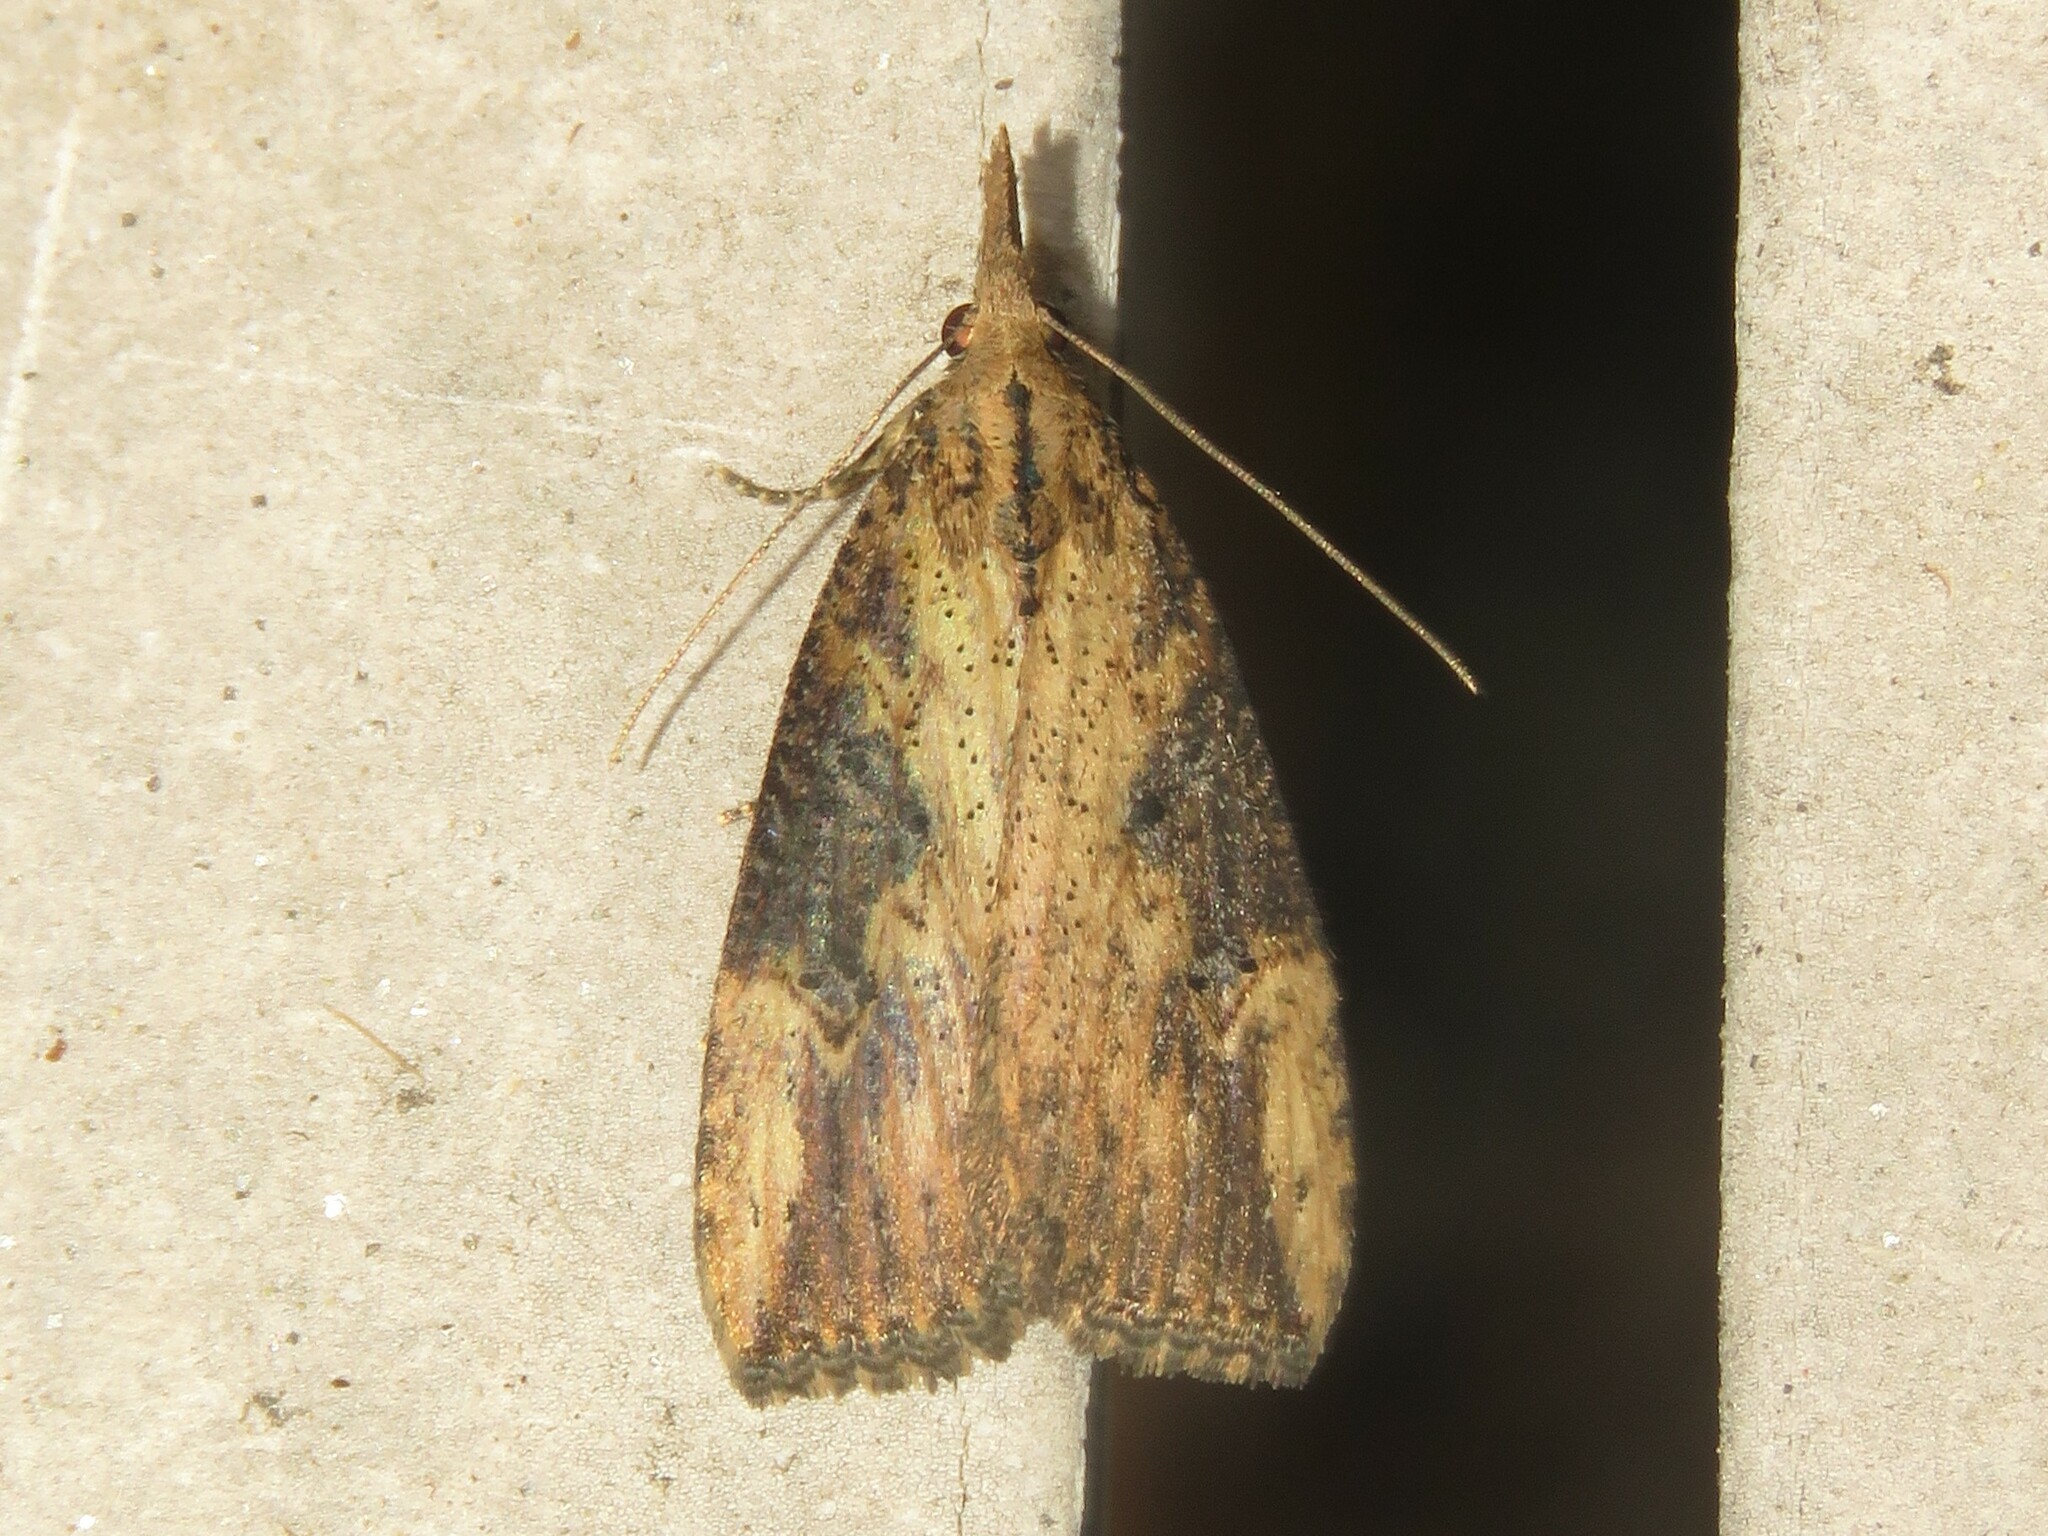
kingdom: Animalia
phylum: Arthropoda
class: Insecta
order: Lepidoptera
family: Erebidae
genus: Hypena
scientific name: Hypena humuli
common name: Hop vine snout
